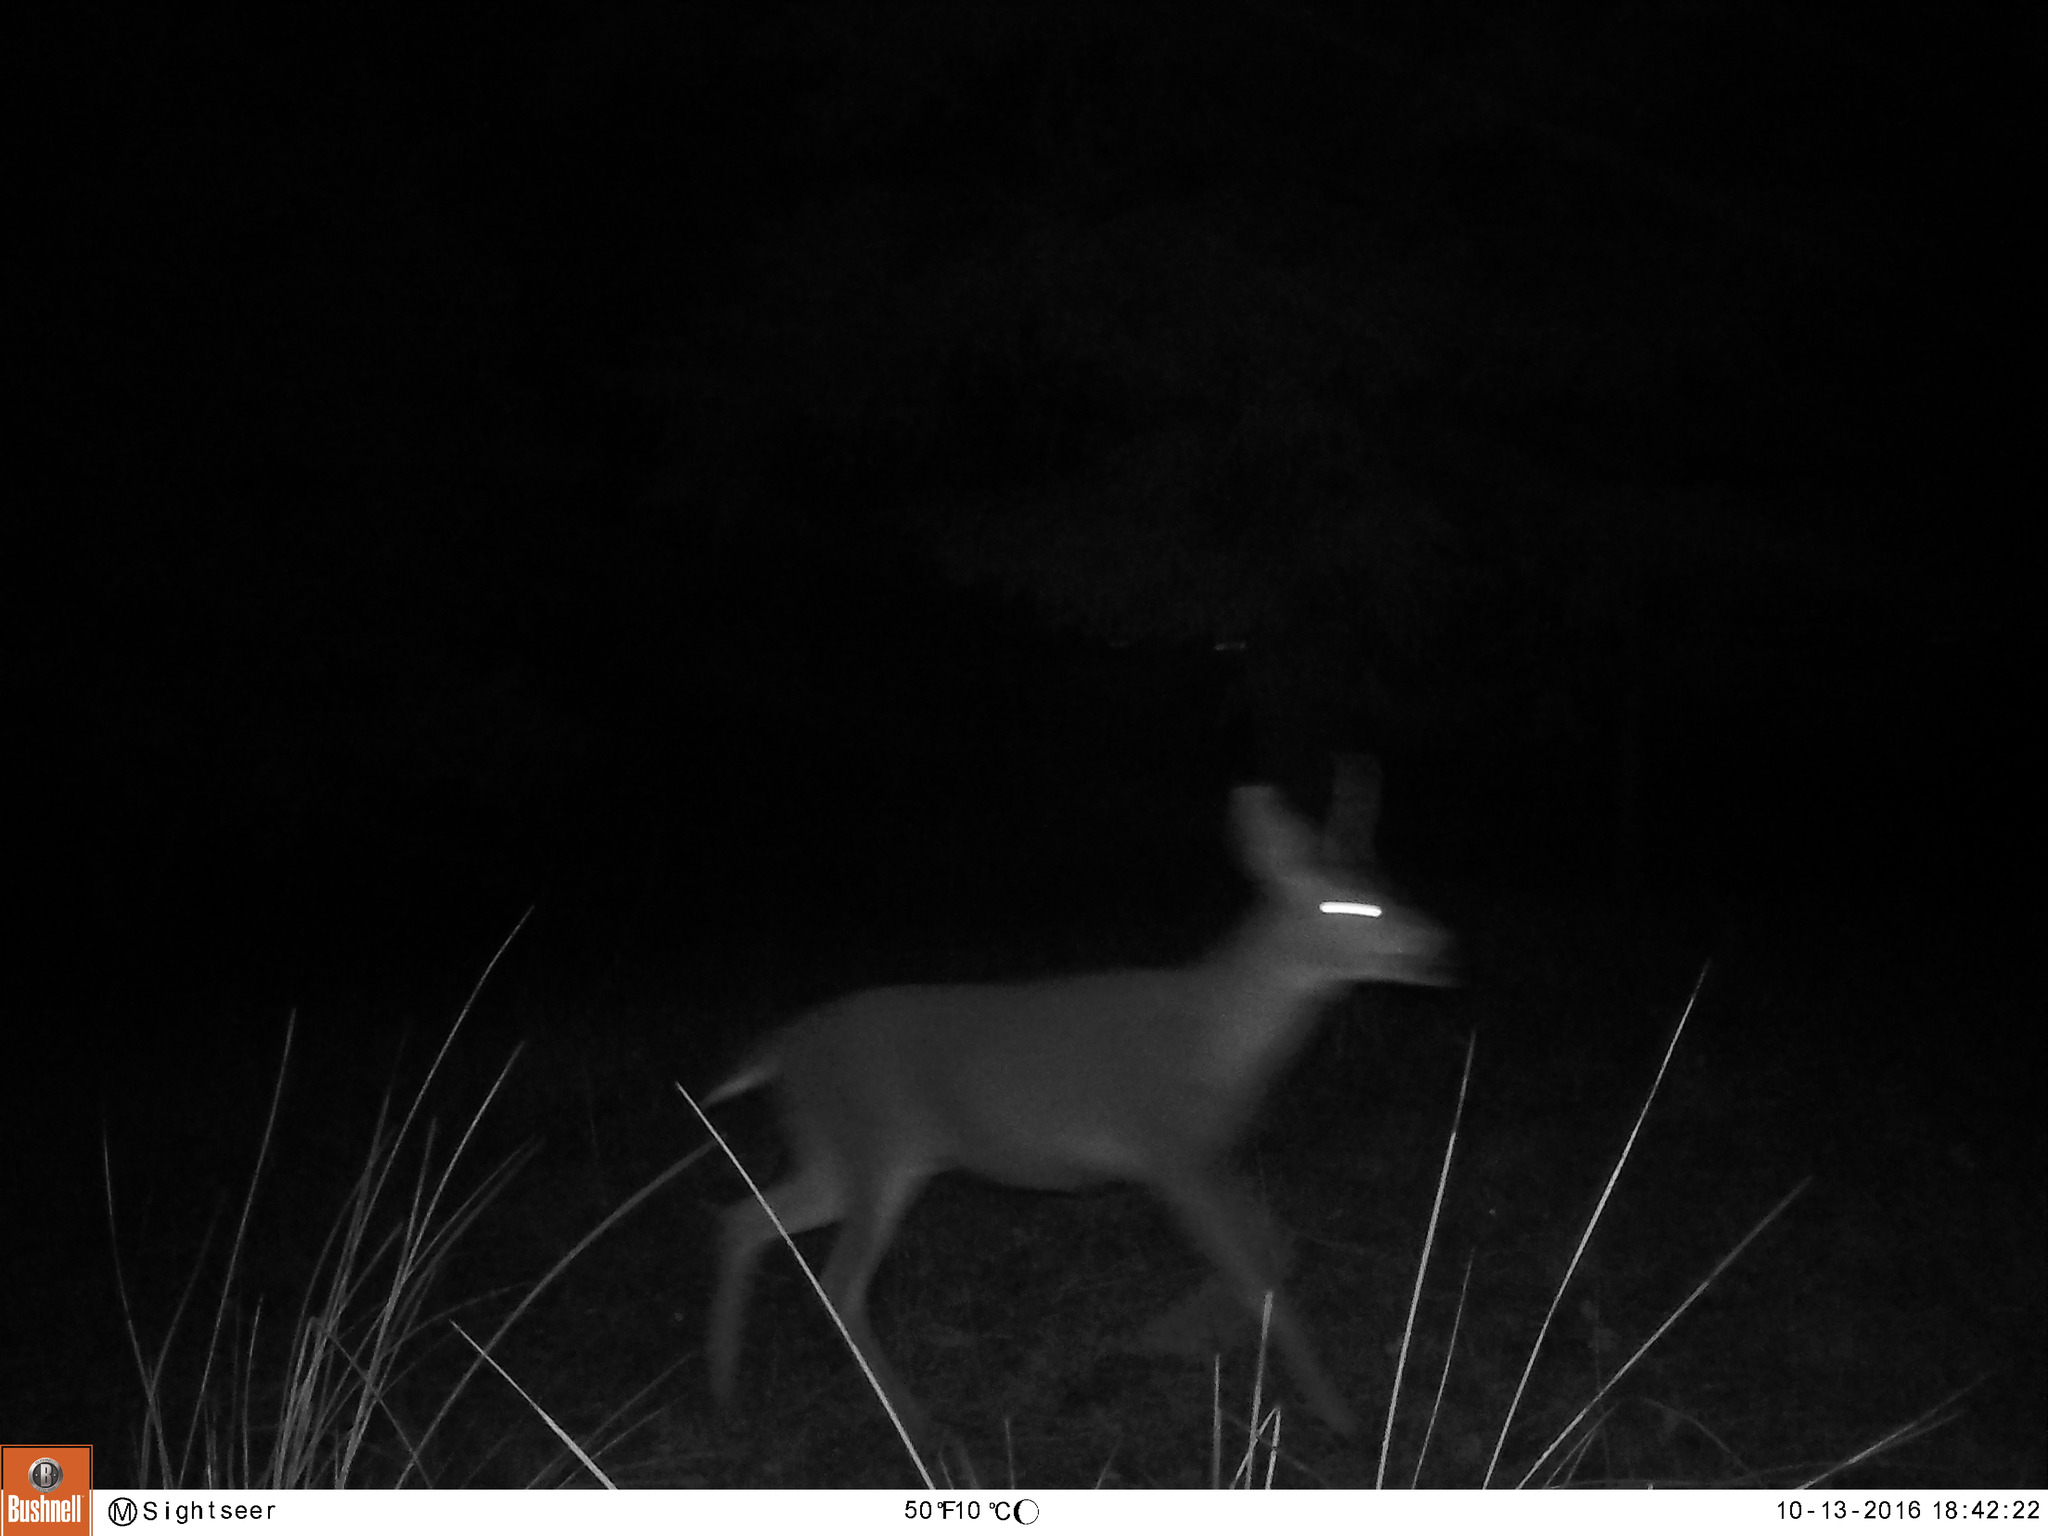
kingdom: Animalia
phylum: Chordata
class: Mammalia
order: Artiodactyla
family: Cervidae
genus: Odocoileus
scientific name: Odocoileus hemionus
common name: Mule deer
